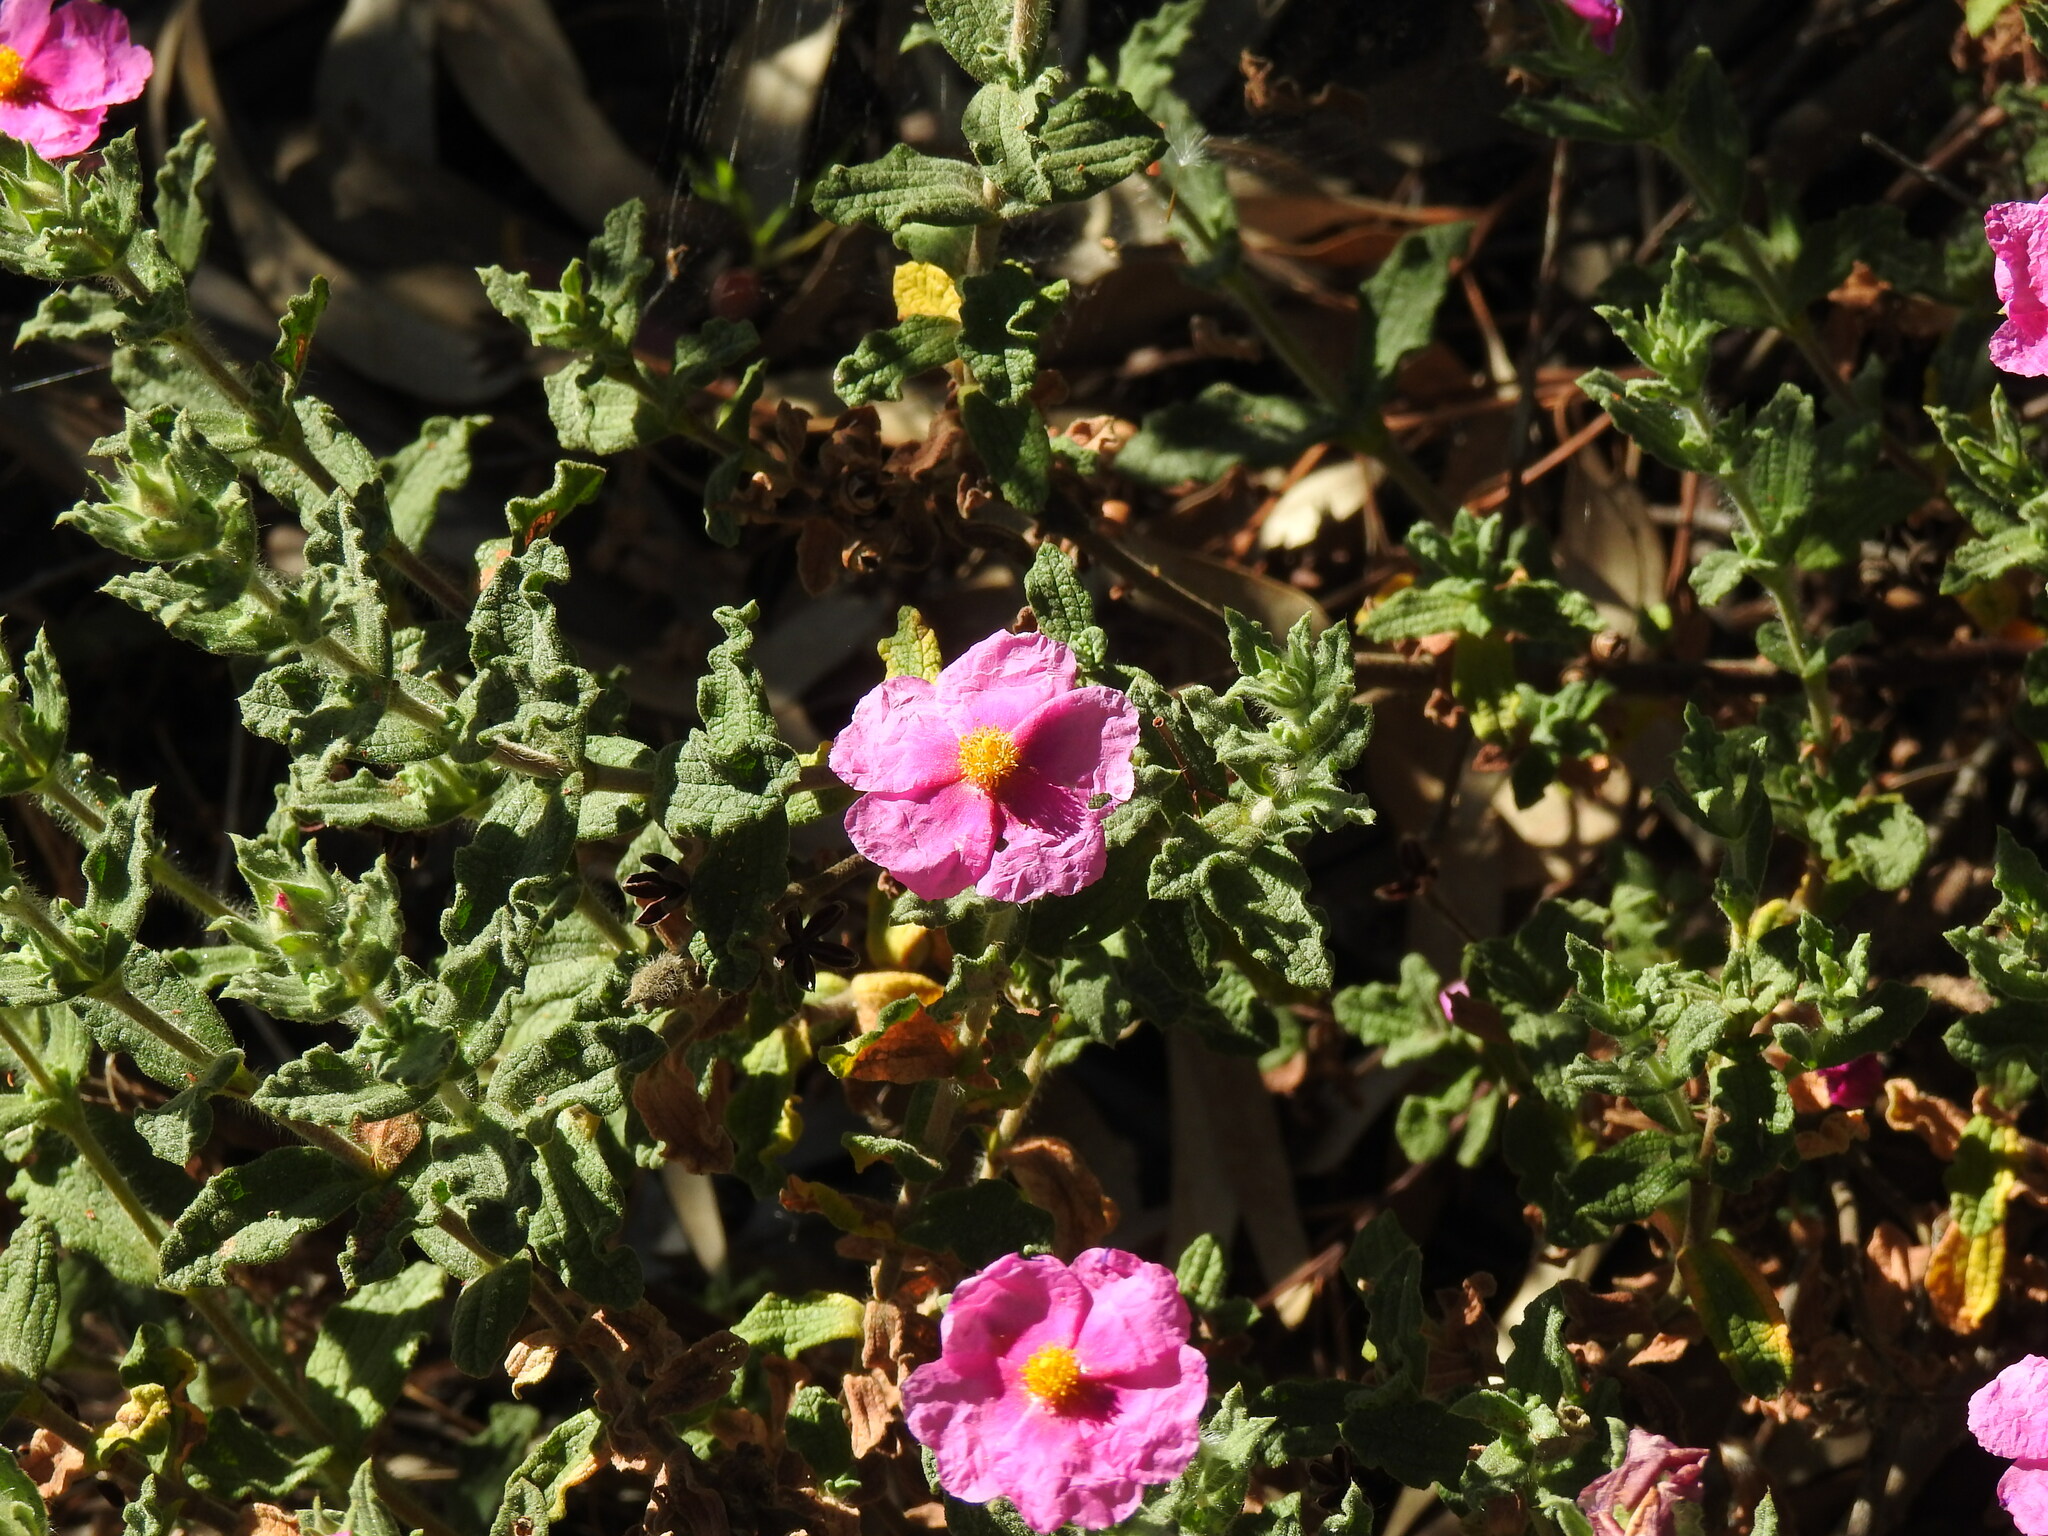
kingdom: Plantae
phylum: Tracheophyta
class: Magnoliopsida
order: Malvales
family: Cistaceae
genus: Cistus
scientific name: Cistus crispus
